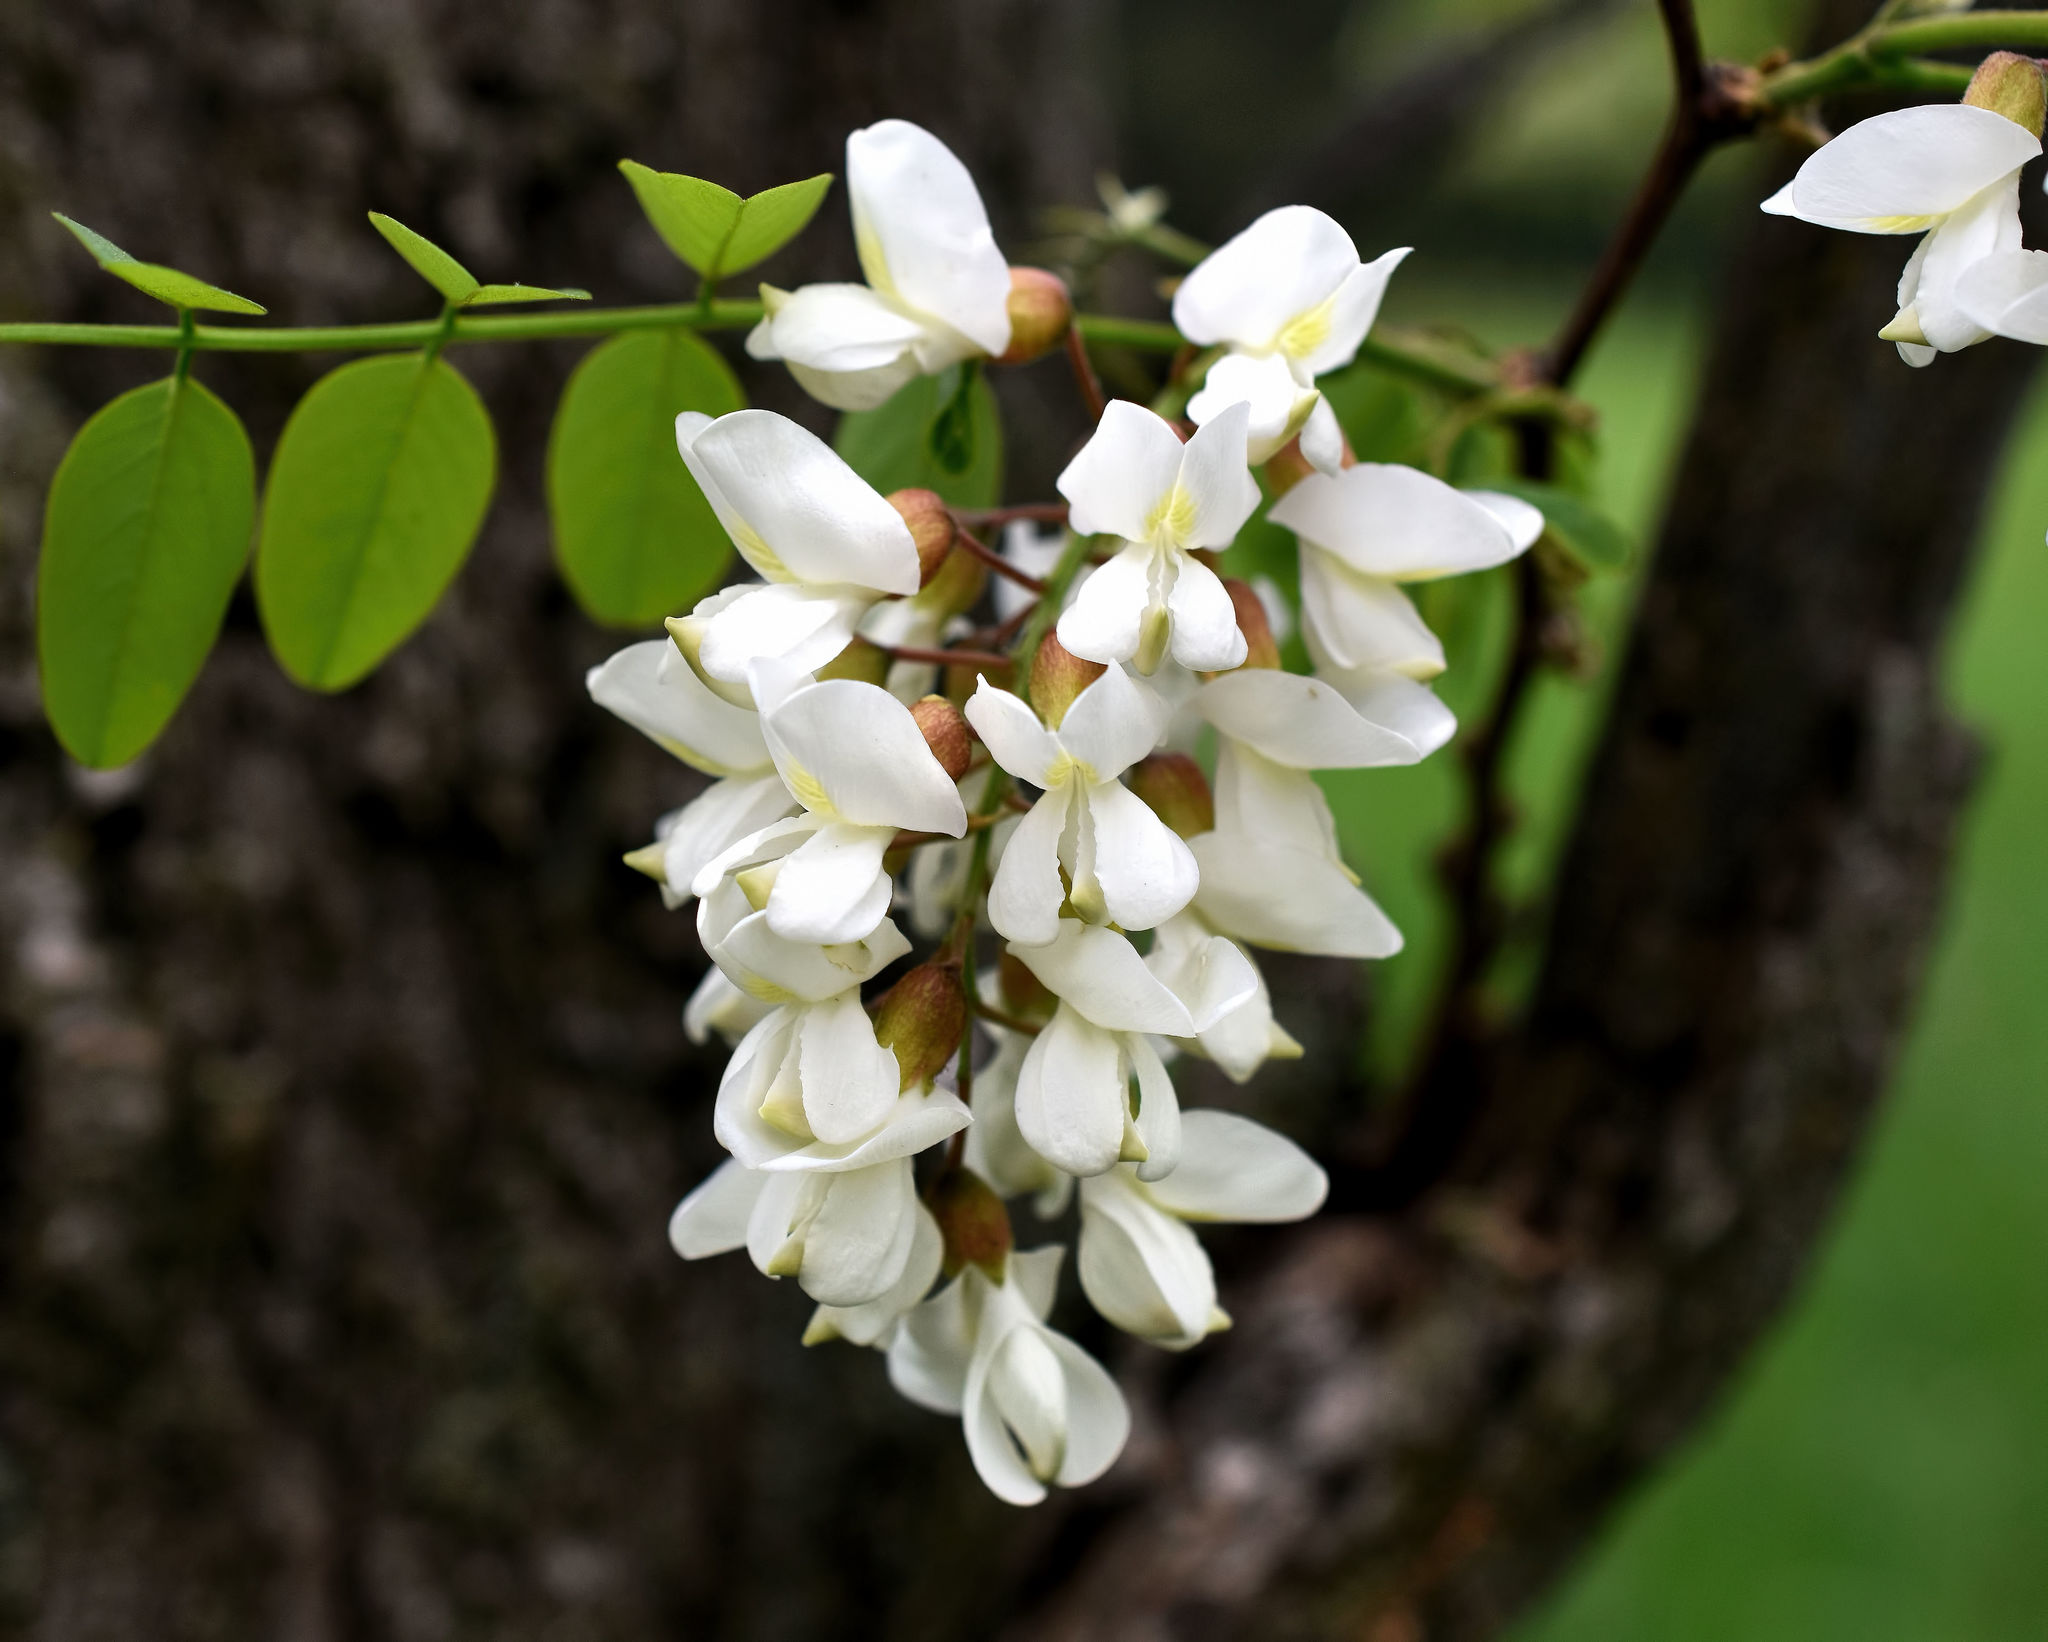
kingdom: Plantae
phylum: Tracheophyta
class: Magnoliopsida
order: Fabales
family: Fabaceae
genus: Robinia
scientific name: Robinia pseudoacacia
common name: Black locust
